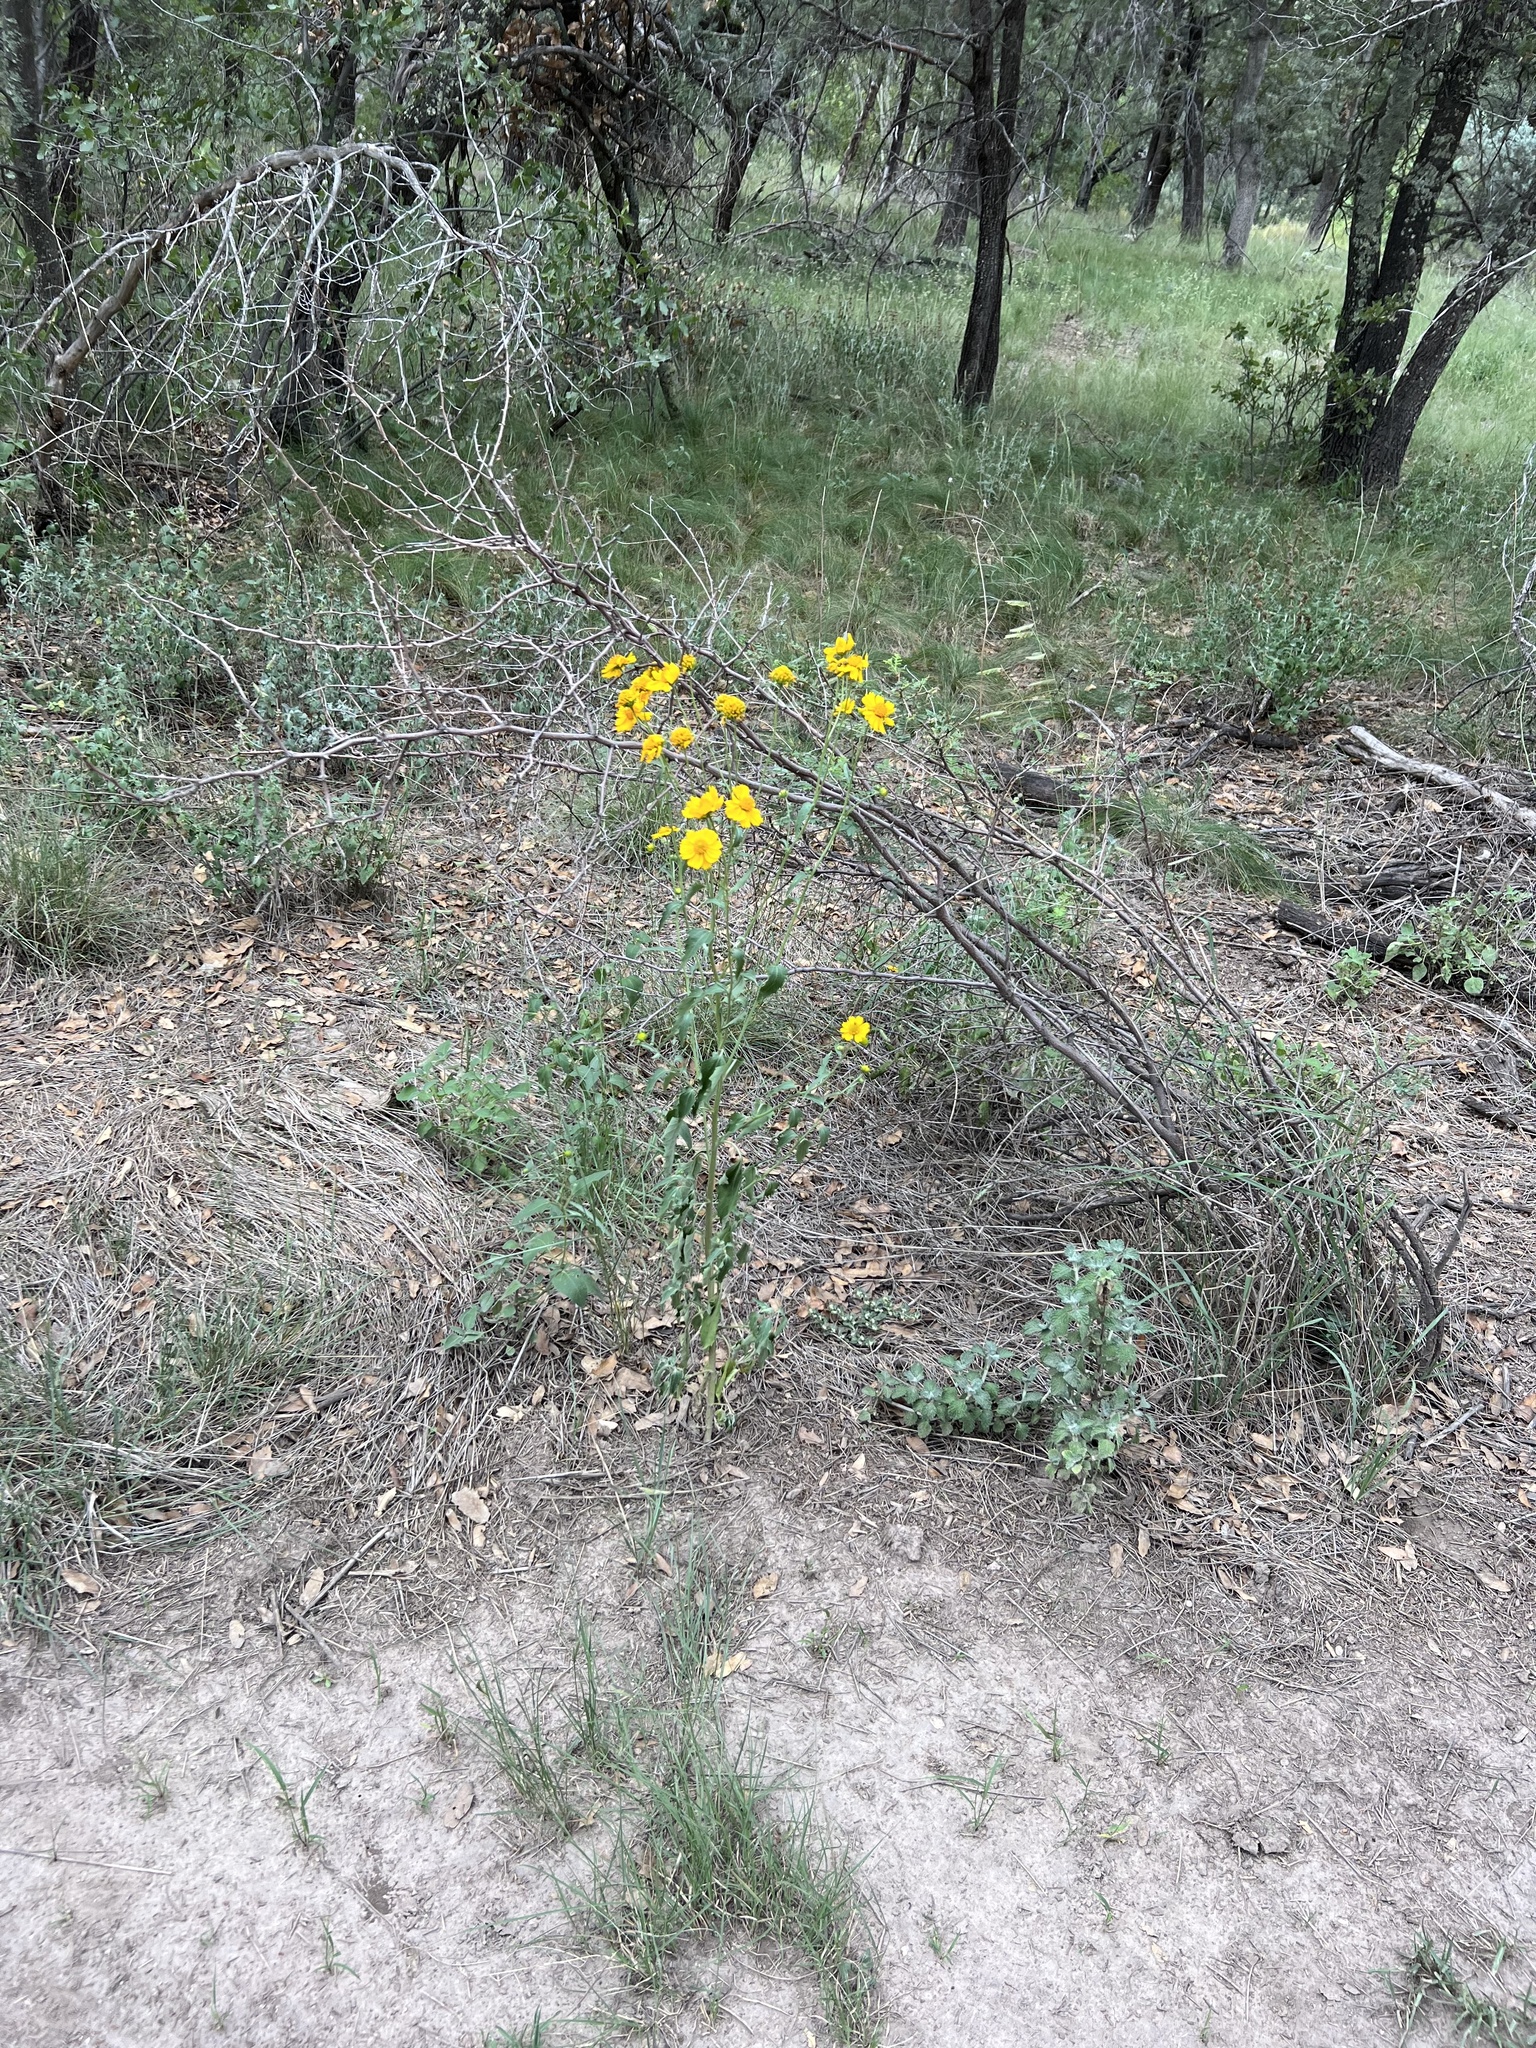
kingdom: Plantae
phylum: Tracheophyta
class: Magnoliopsida
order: Asterales
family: Asteraceae
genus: Verbesina
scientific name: Verbesina encelioides
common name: Golden crownbeard
